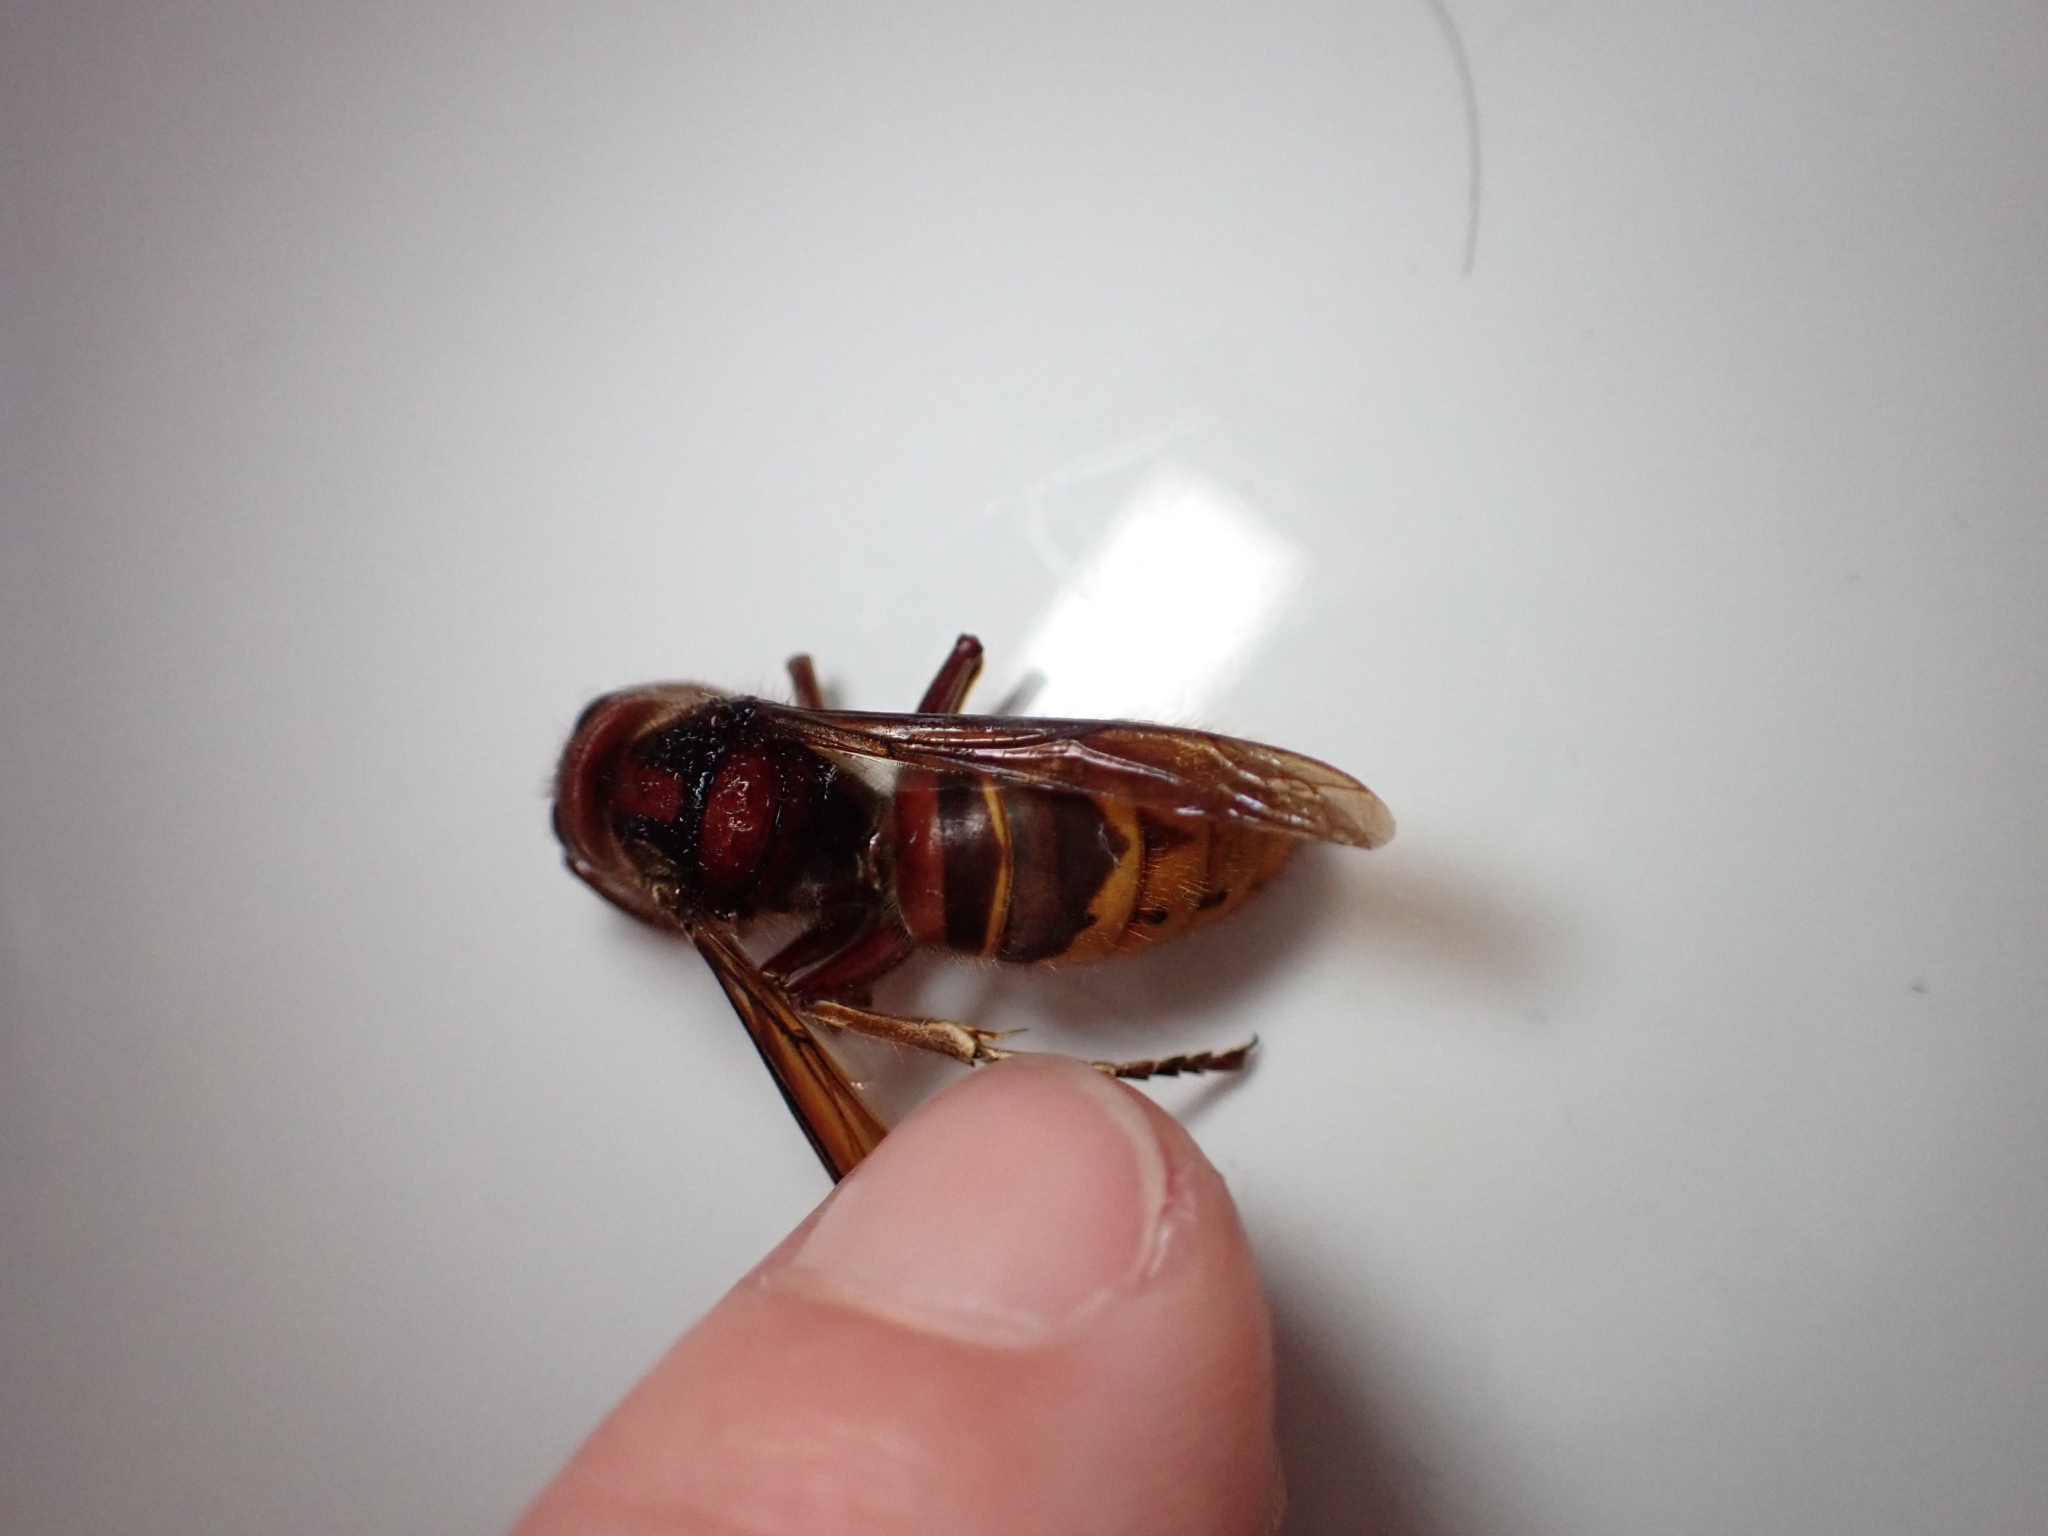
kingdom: Animalia
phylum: Arthropoda
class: Insecta
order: Hymenoptera
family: Vespidae
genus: Vespa
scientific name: Vespa crabro
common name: Hornet
